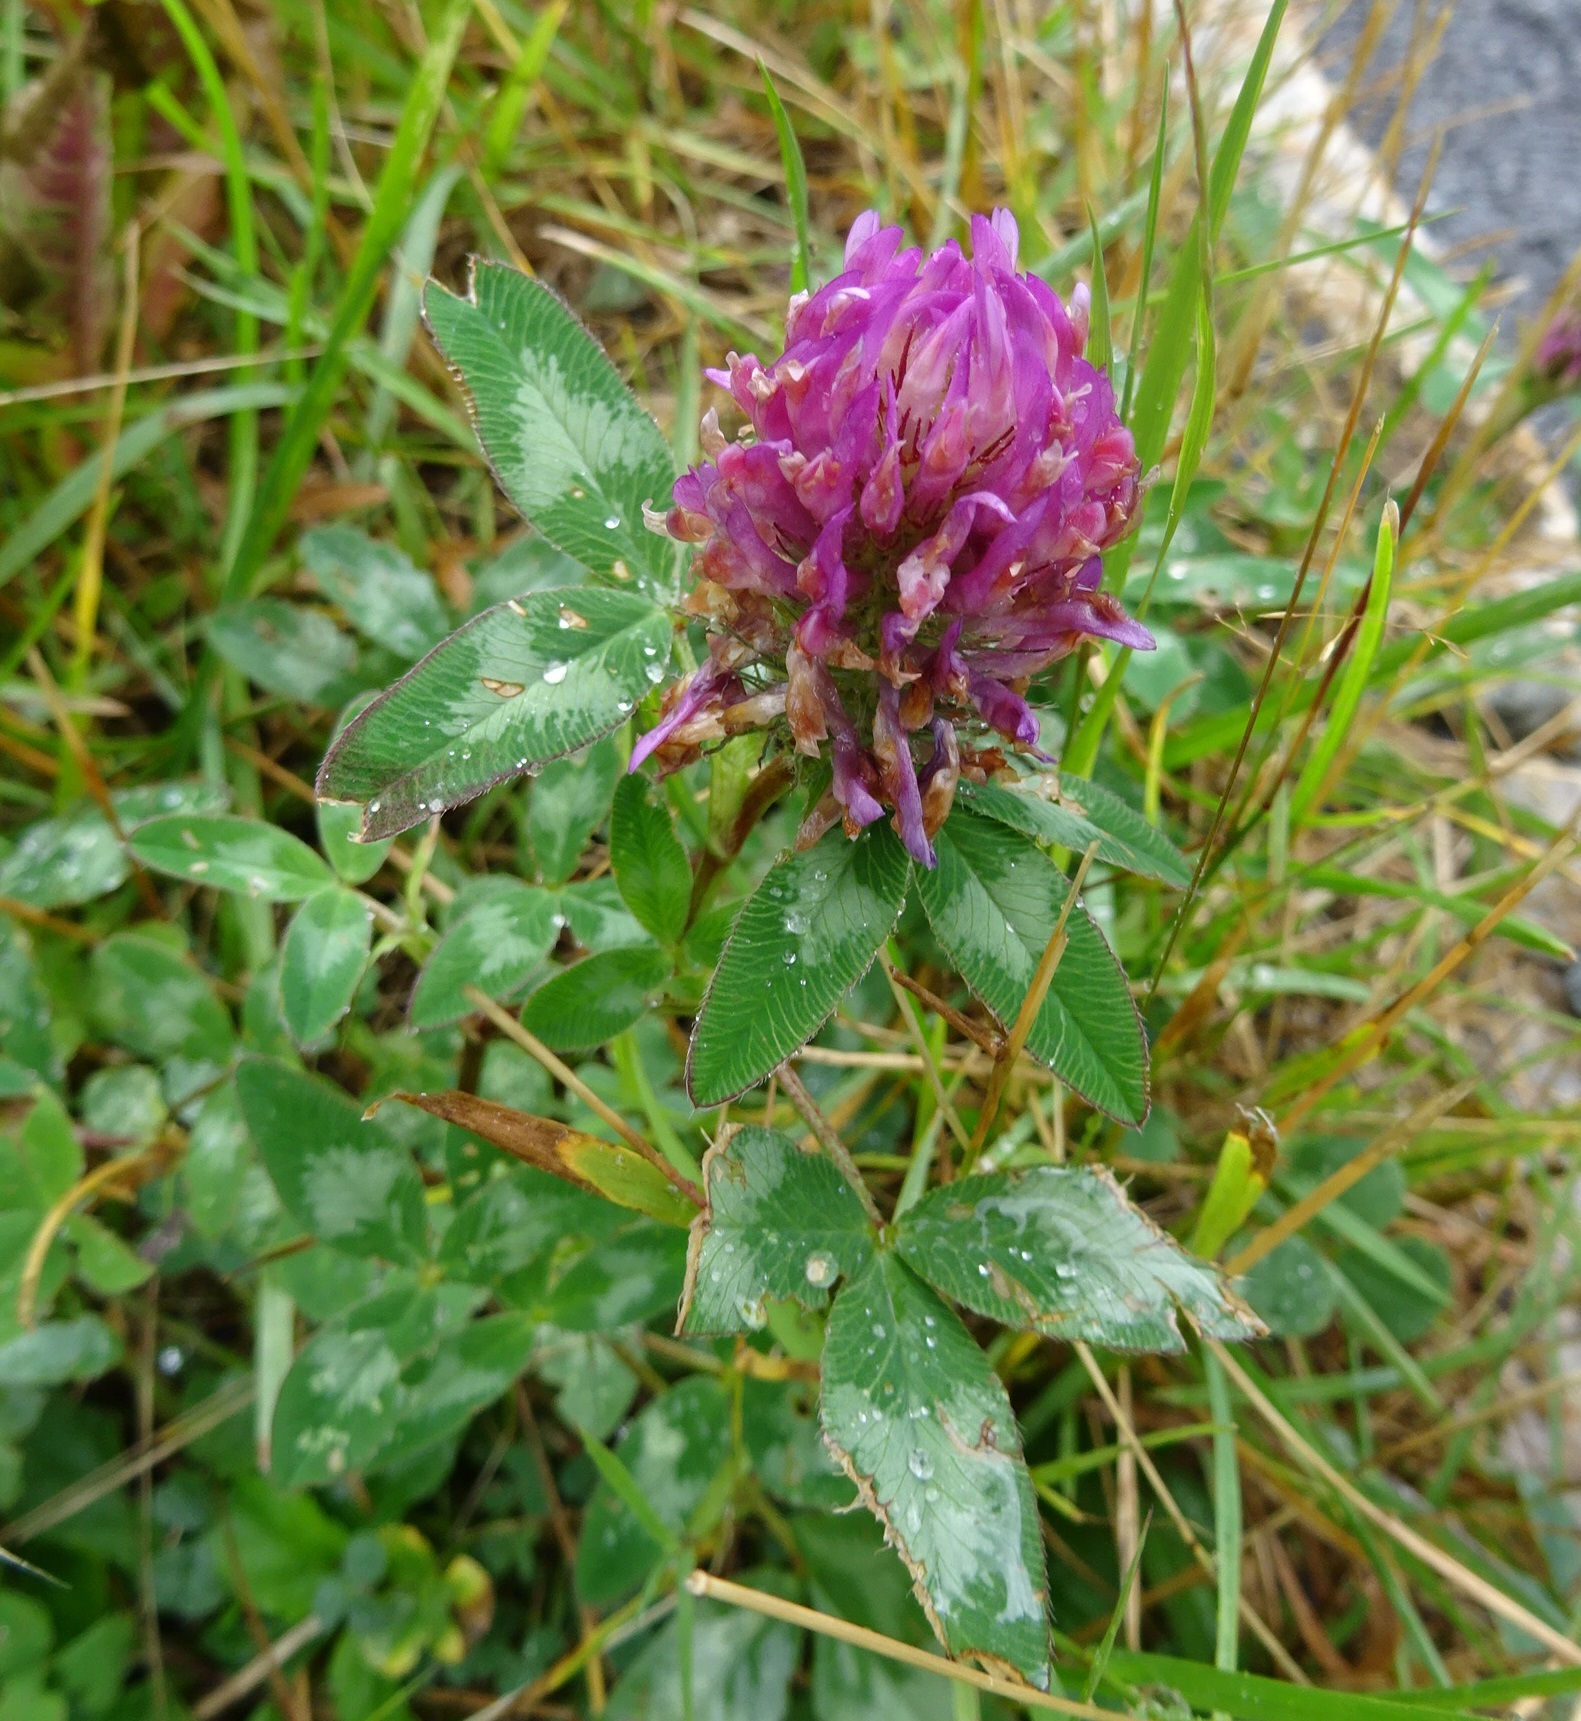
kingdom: Plantae
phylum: Tracheophyta
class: Magnoliopsida
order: Fabales
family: Fabaceae
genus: Trifolium
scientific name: Trifolium pratense
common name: Red clover
